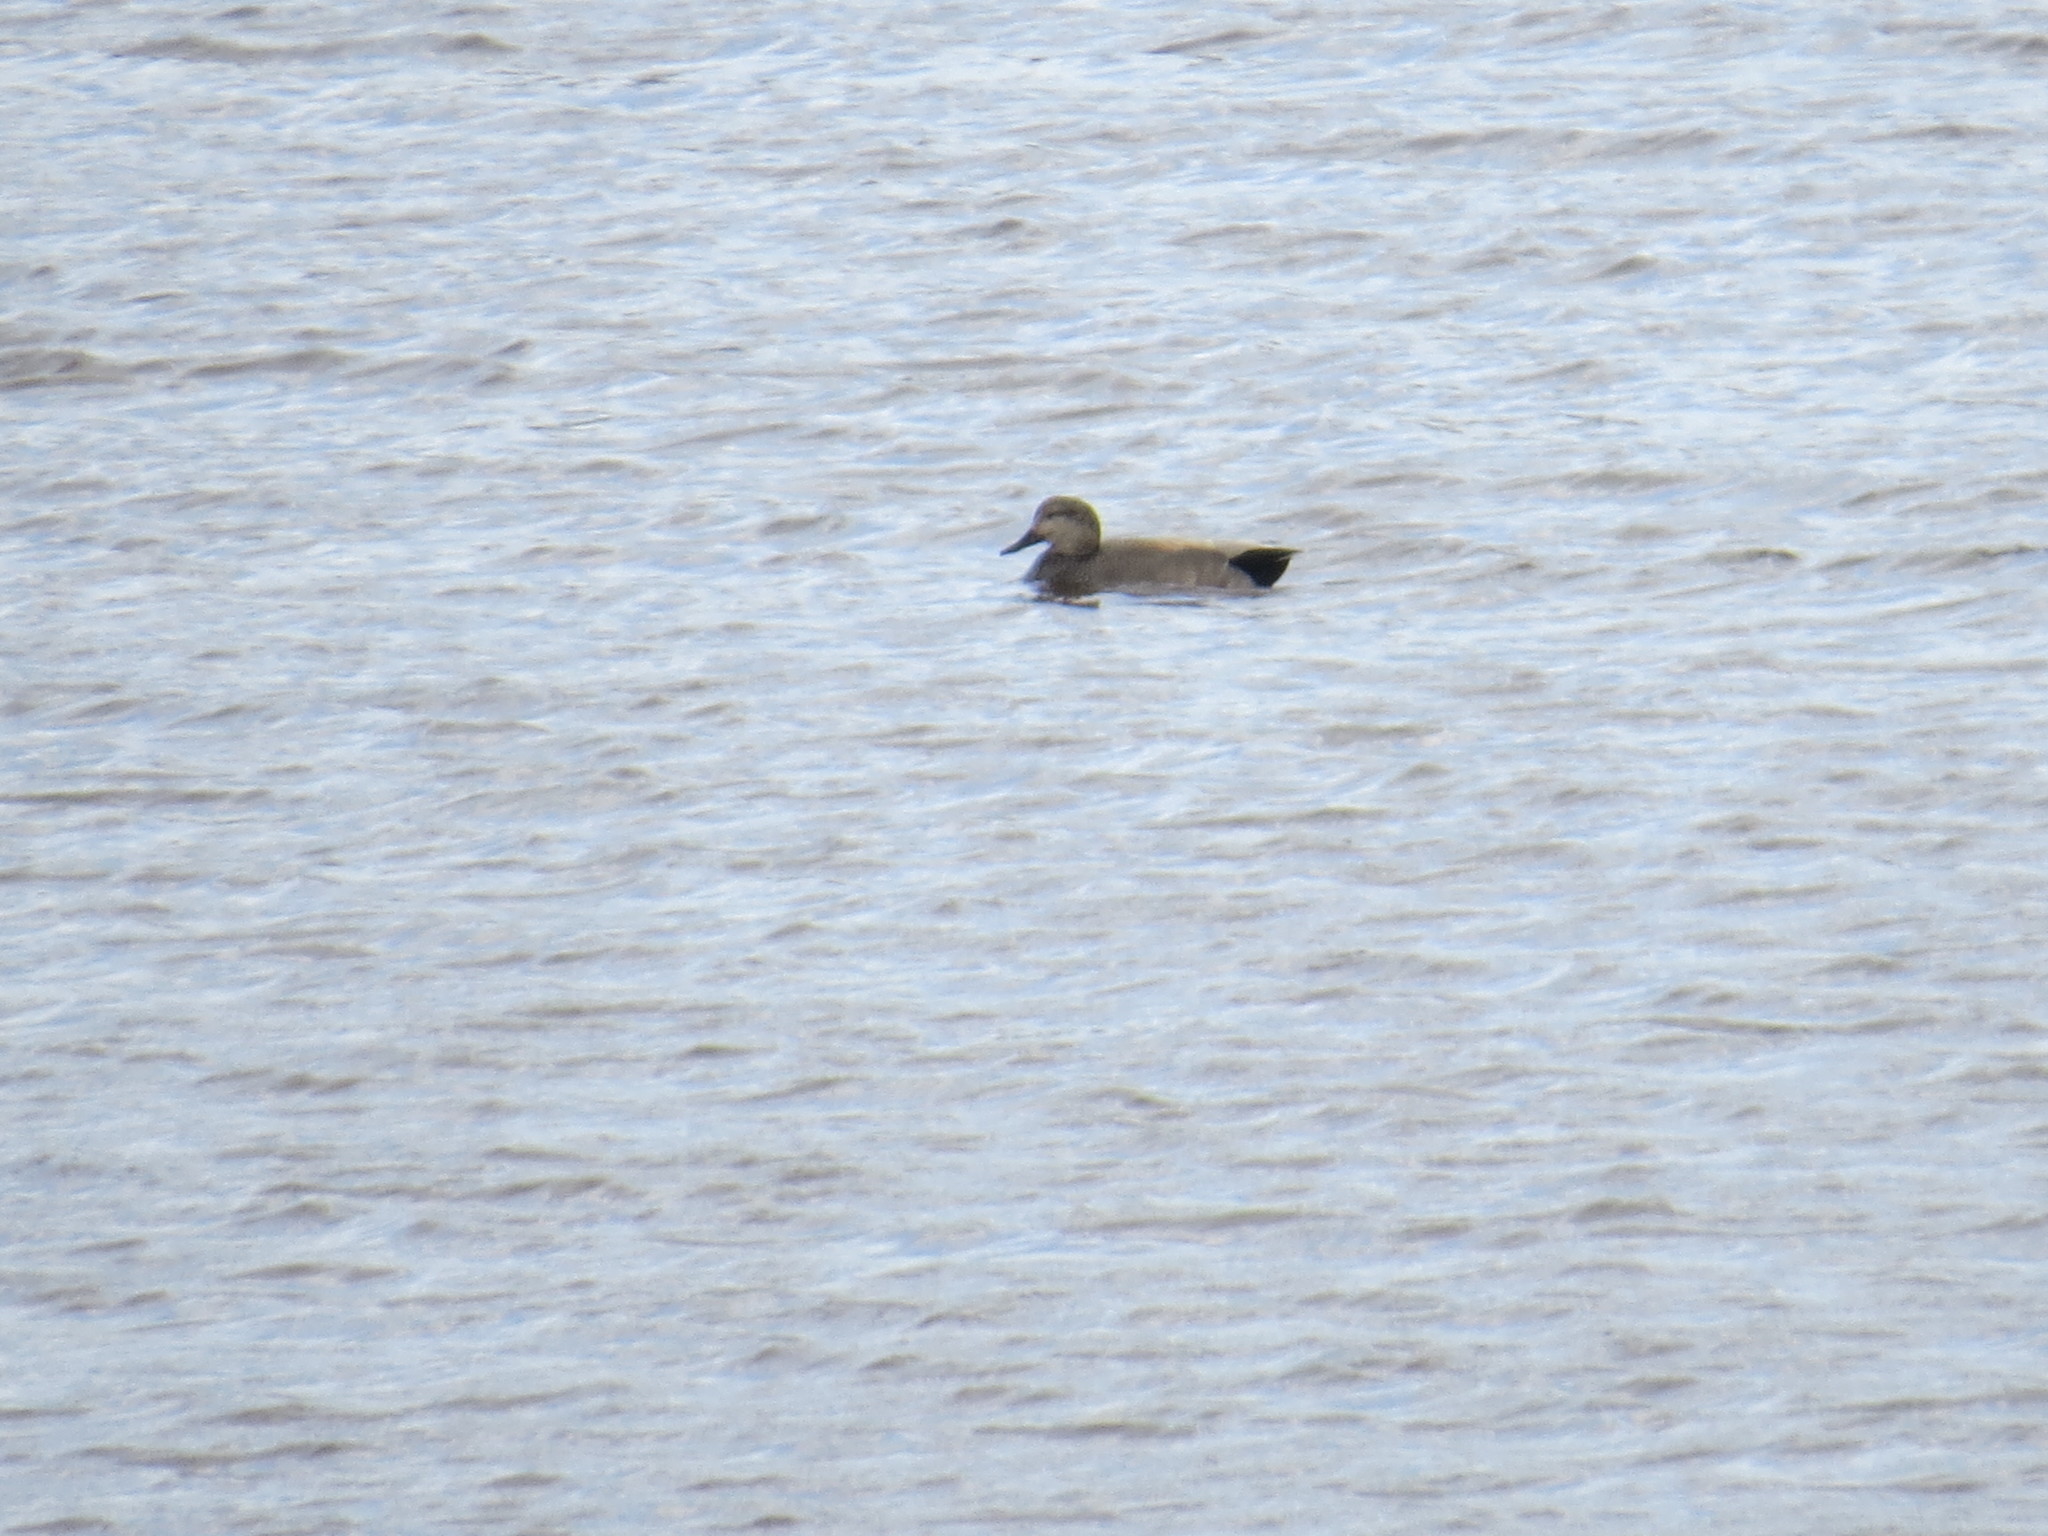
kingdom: Animalia
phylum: Chordata
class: Aves
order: Anseriformes
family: Anatidae
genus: Mareca
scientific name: Mareca strepera
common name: Gadwall
